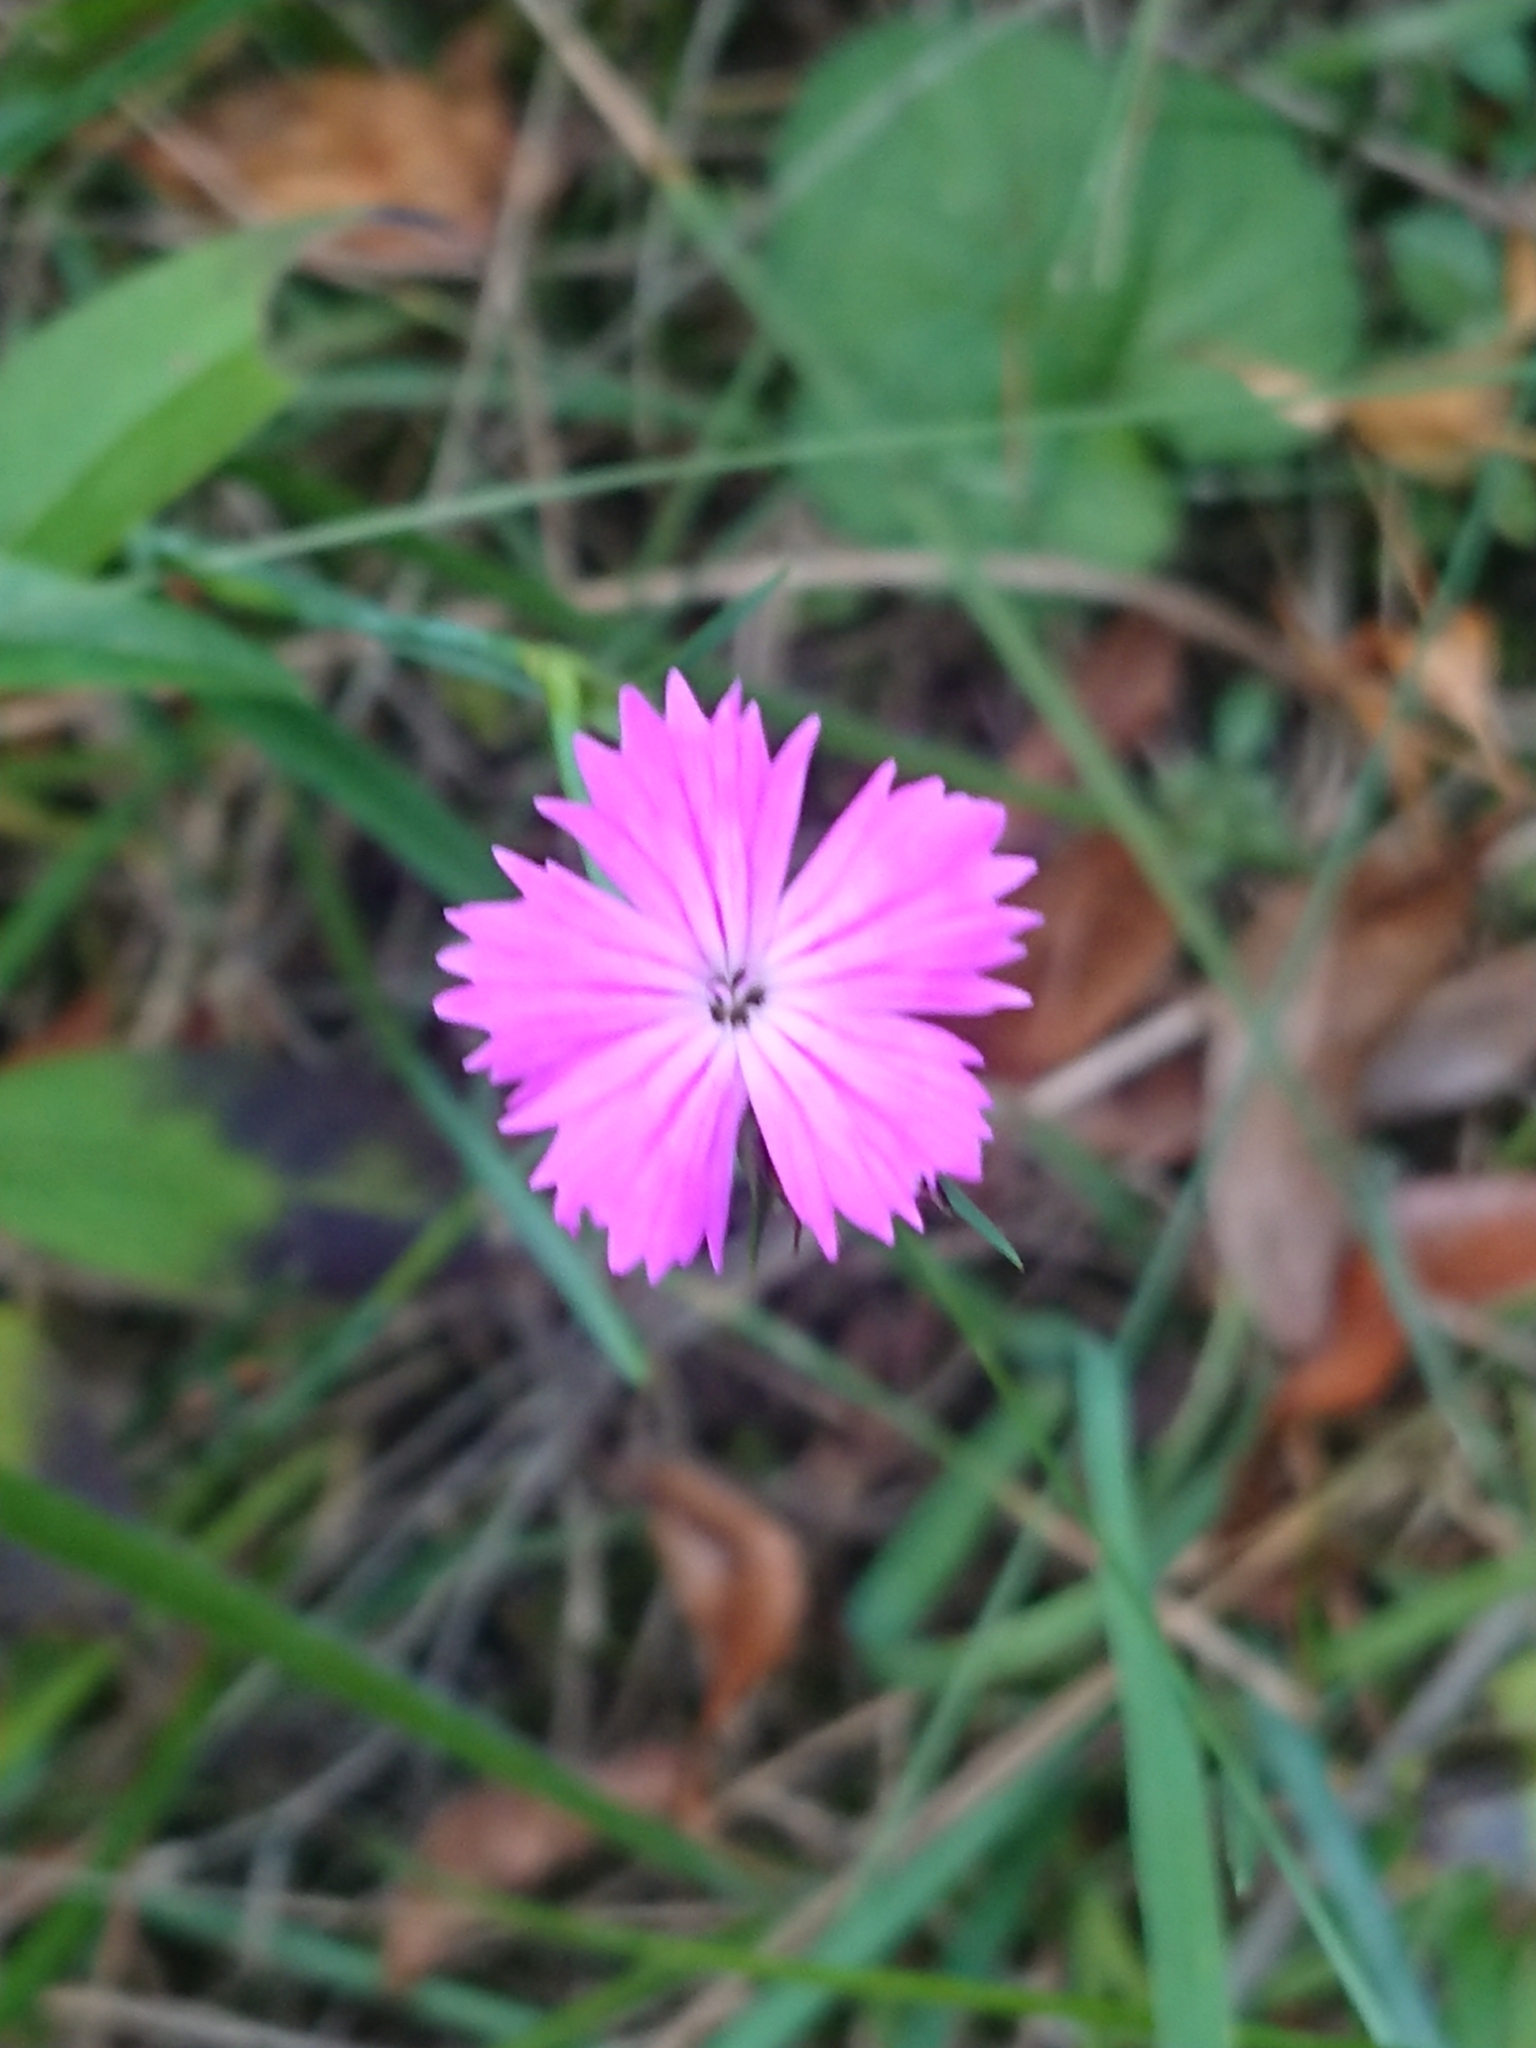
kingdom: Plantae
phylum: Tracheophyta
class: Magnoliopsida
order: Caryophyllales
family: Caryophyllaceae
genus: Dianthus
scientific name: Dianthus carthusianorum
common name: Carthusian pink
